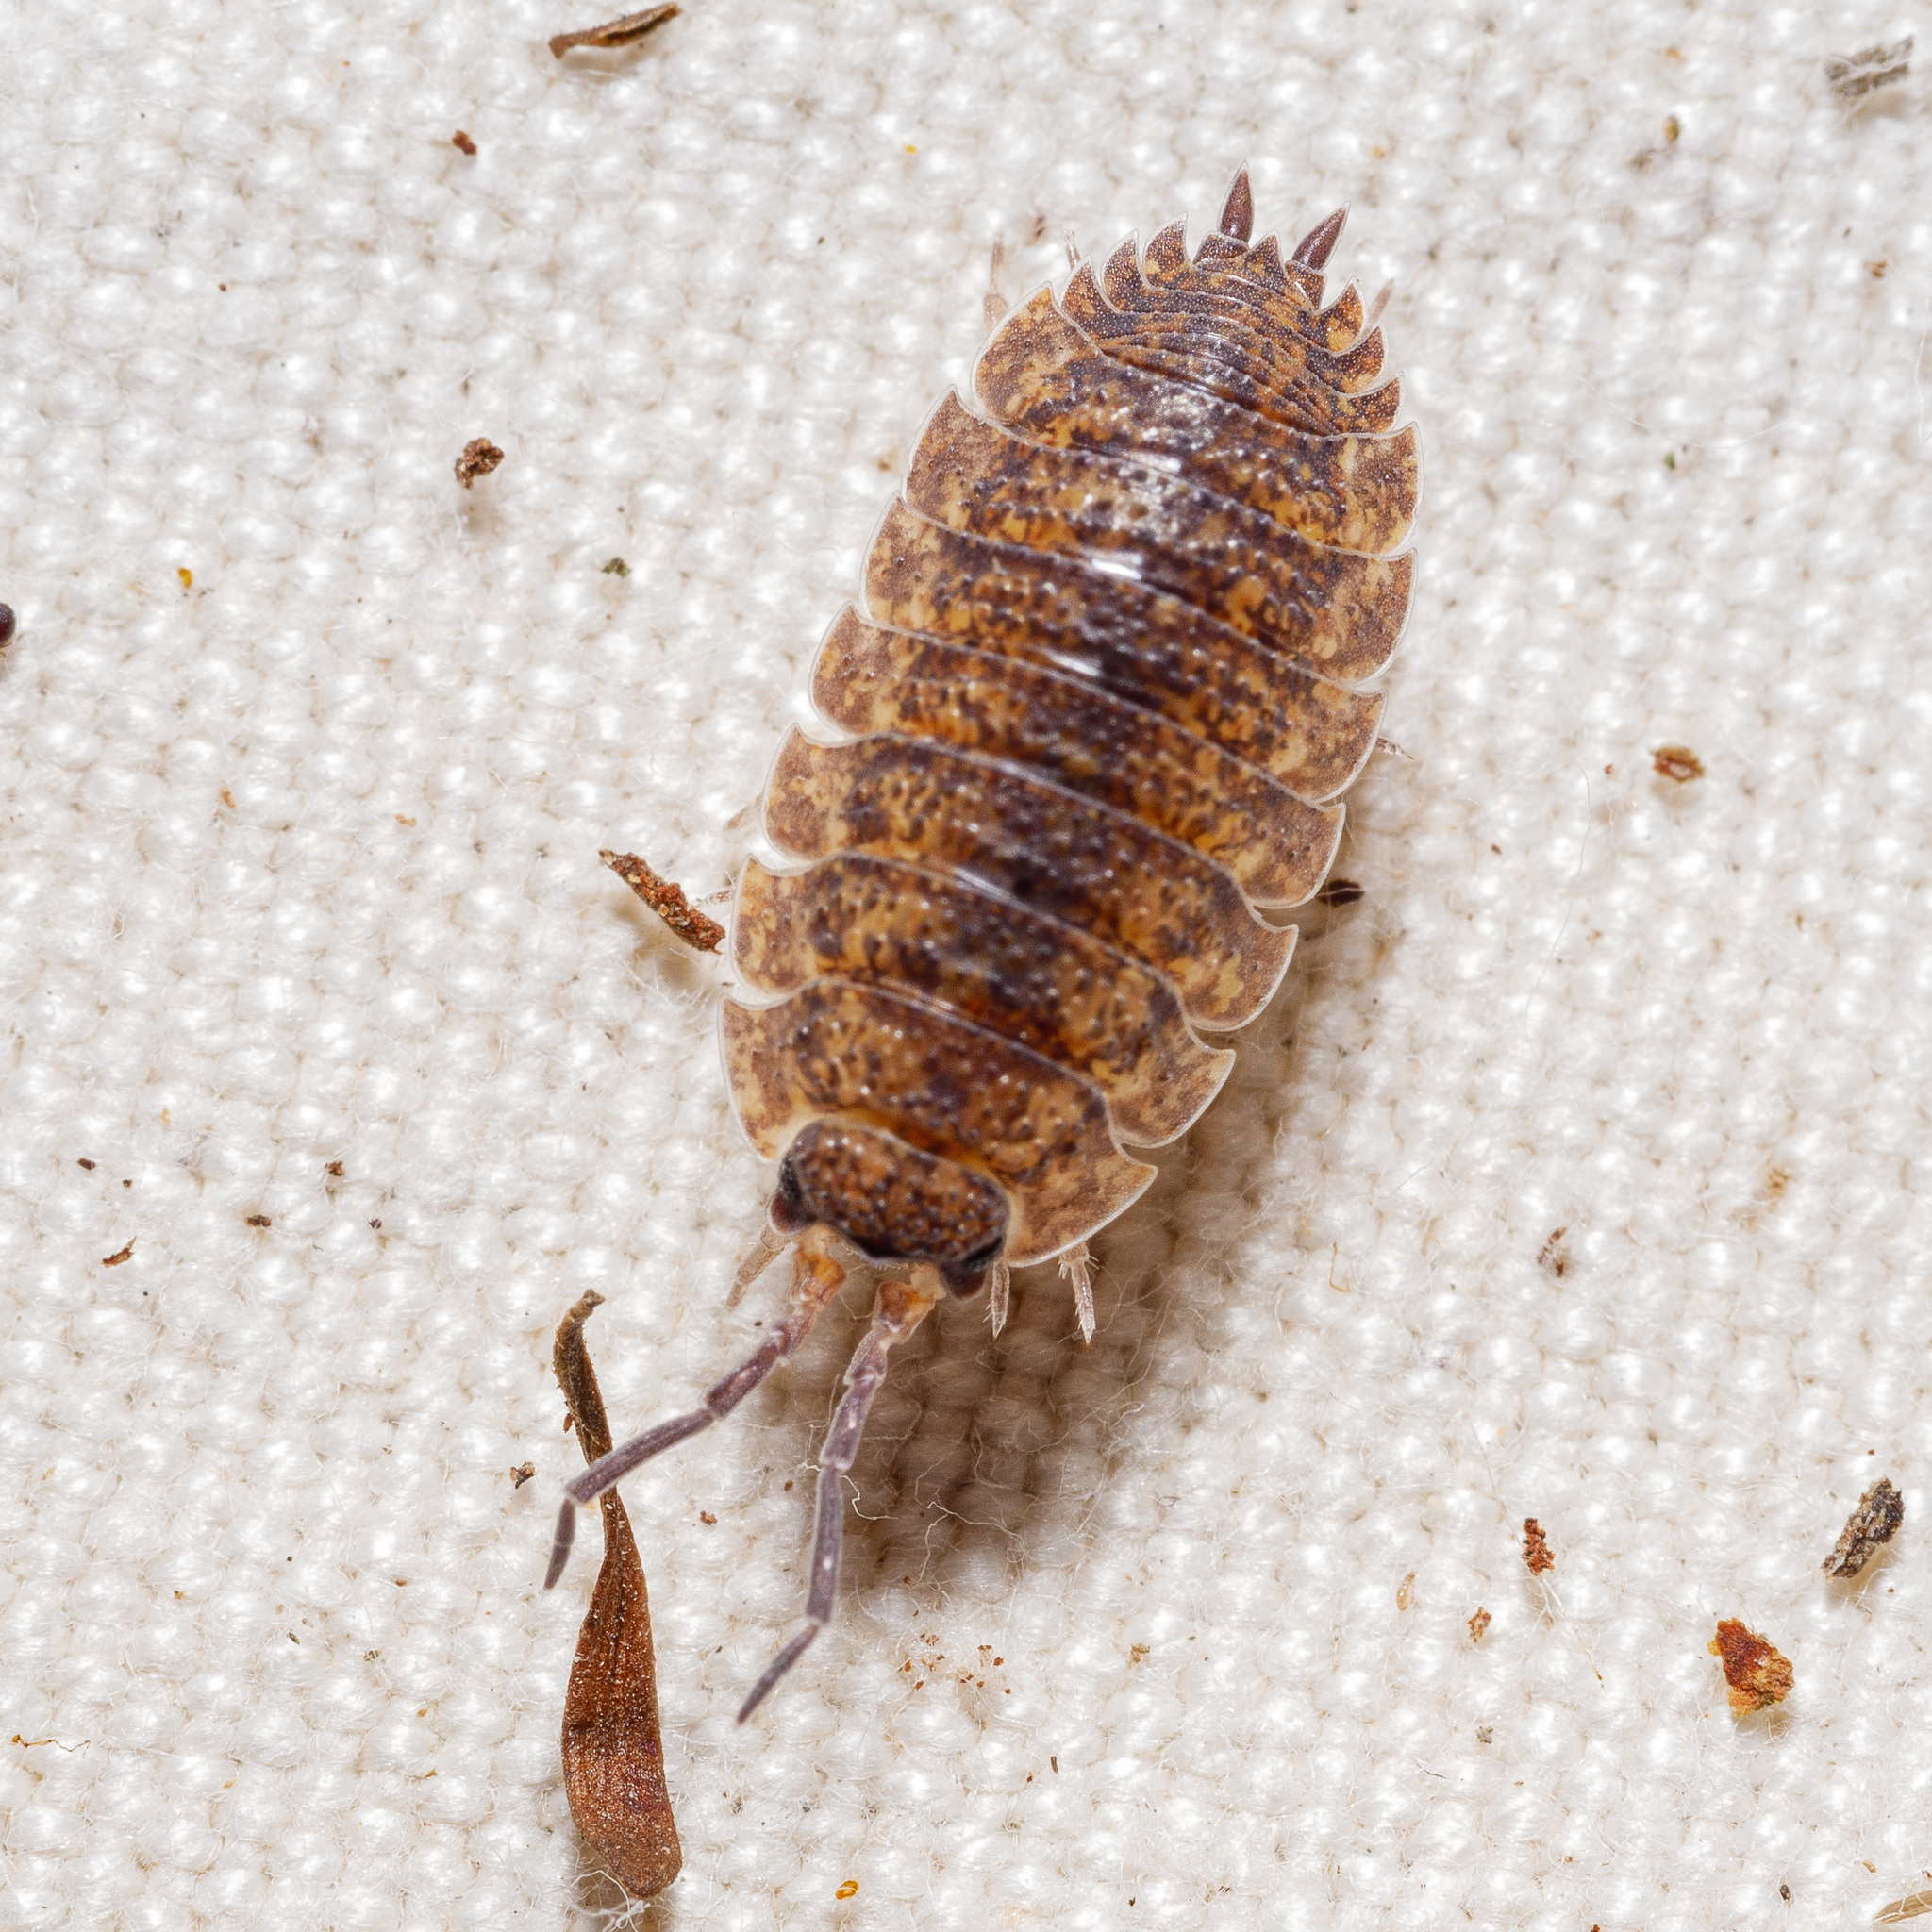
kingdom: Animalia
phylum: Arthropoda
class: Malacostraca
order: Isopoda
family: Porcellionidae
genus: Porcellio
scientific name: Porcellio scaber
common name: Common rough woodlouse
